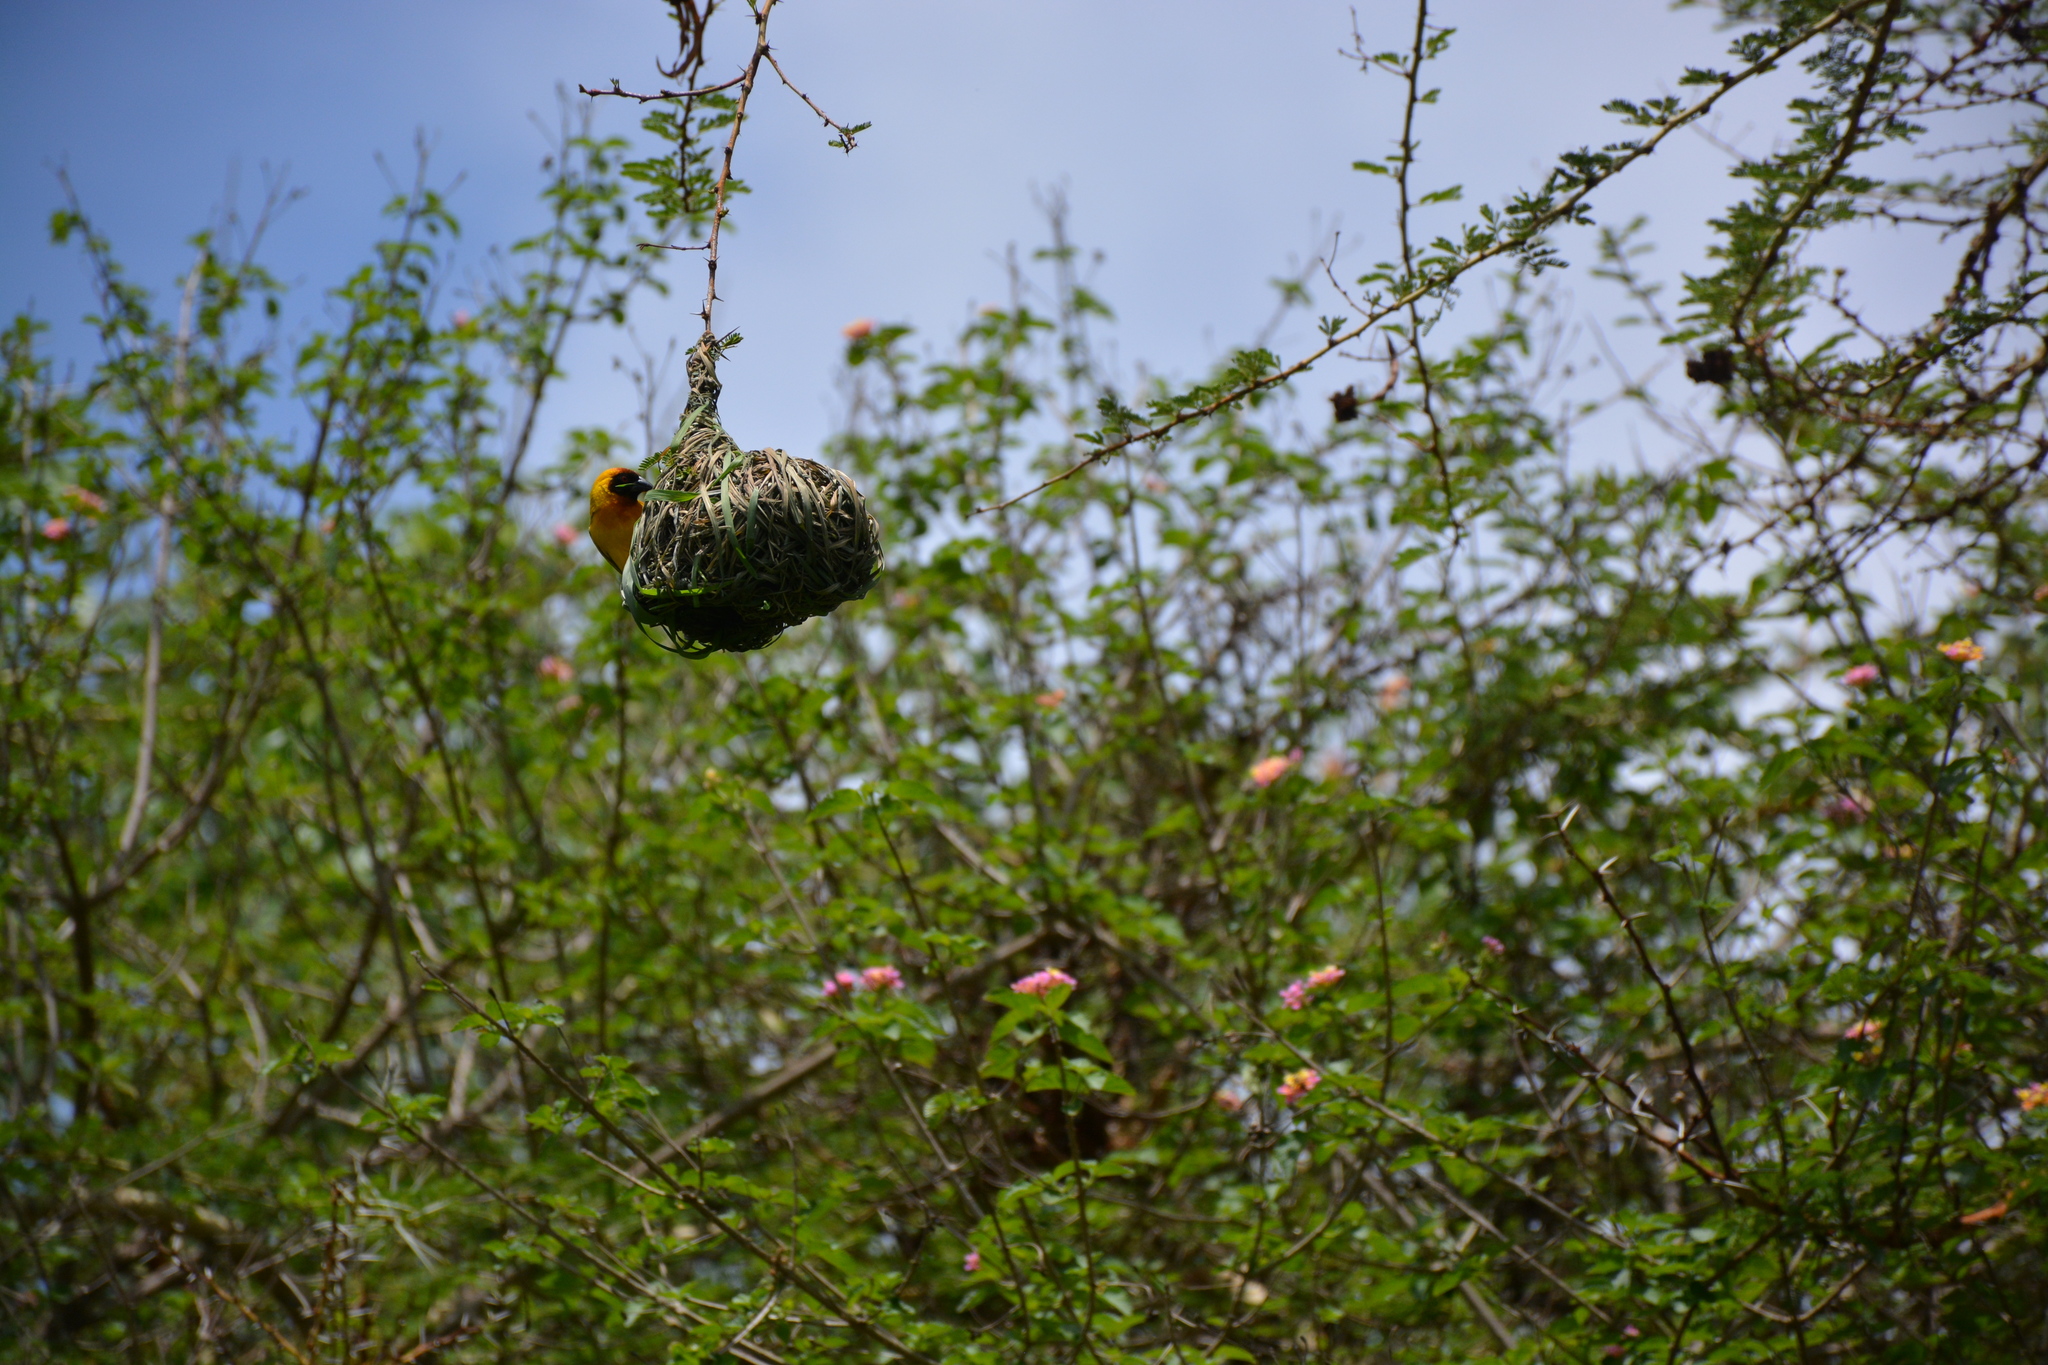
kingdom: Animalia
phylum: Chordata
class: Aves
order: Passeriformes
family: Ploceidae
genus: Ploceus
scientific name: Ploceus vitellinus
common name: Vitelline masked weaver
